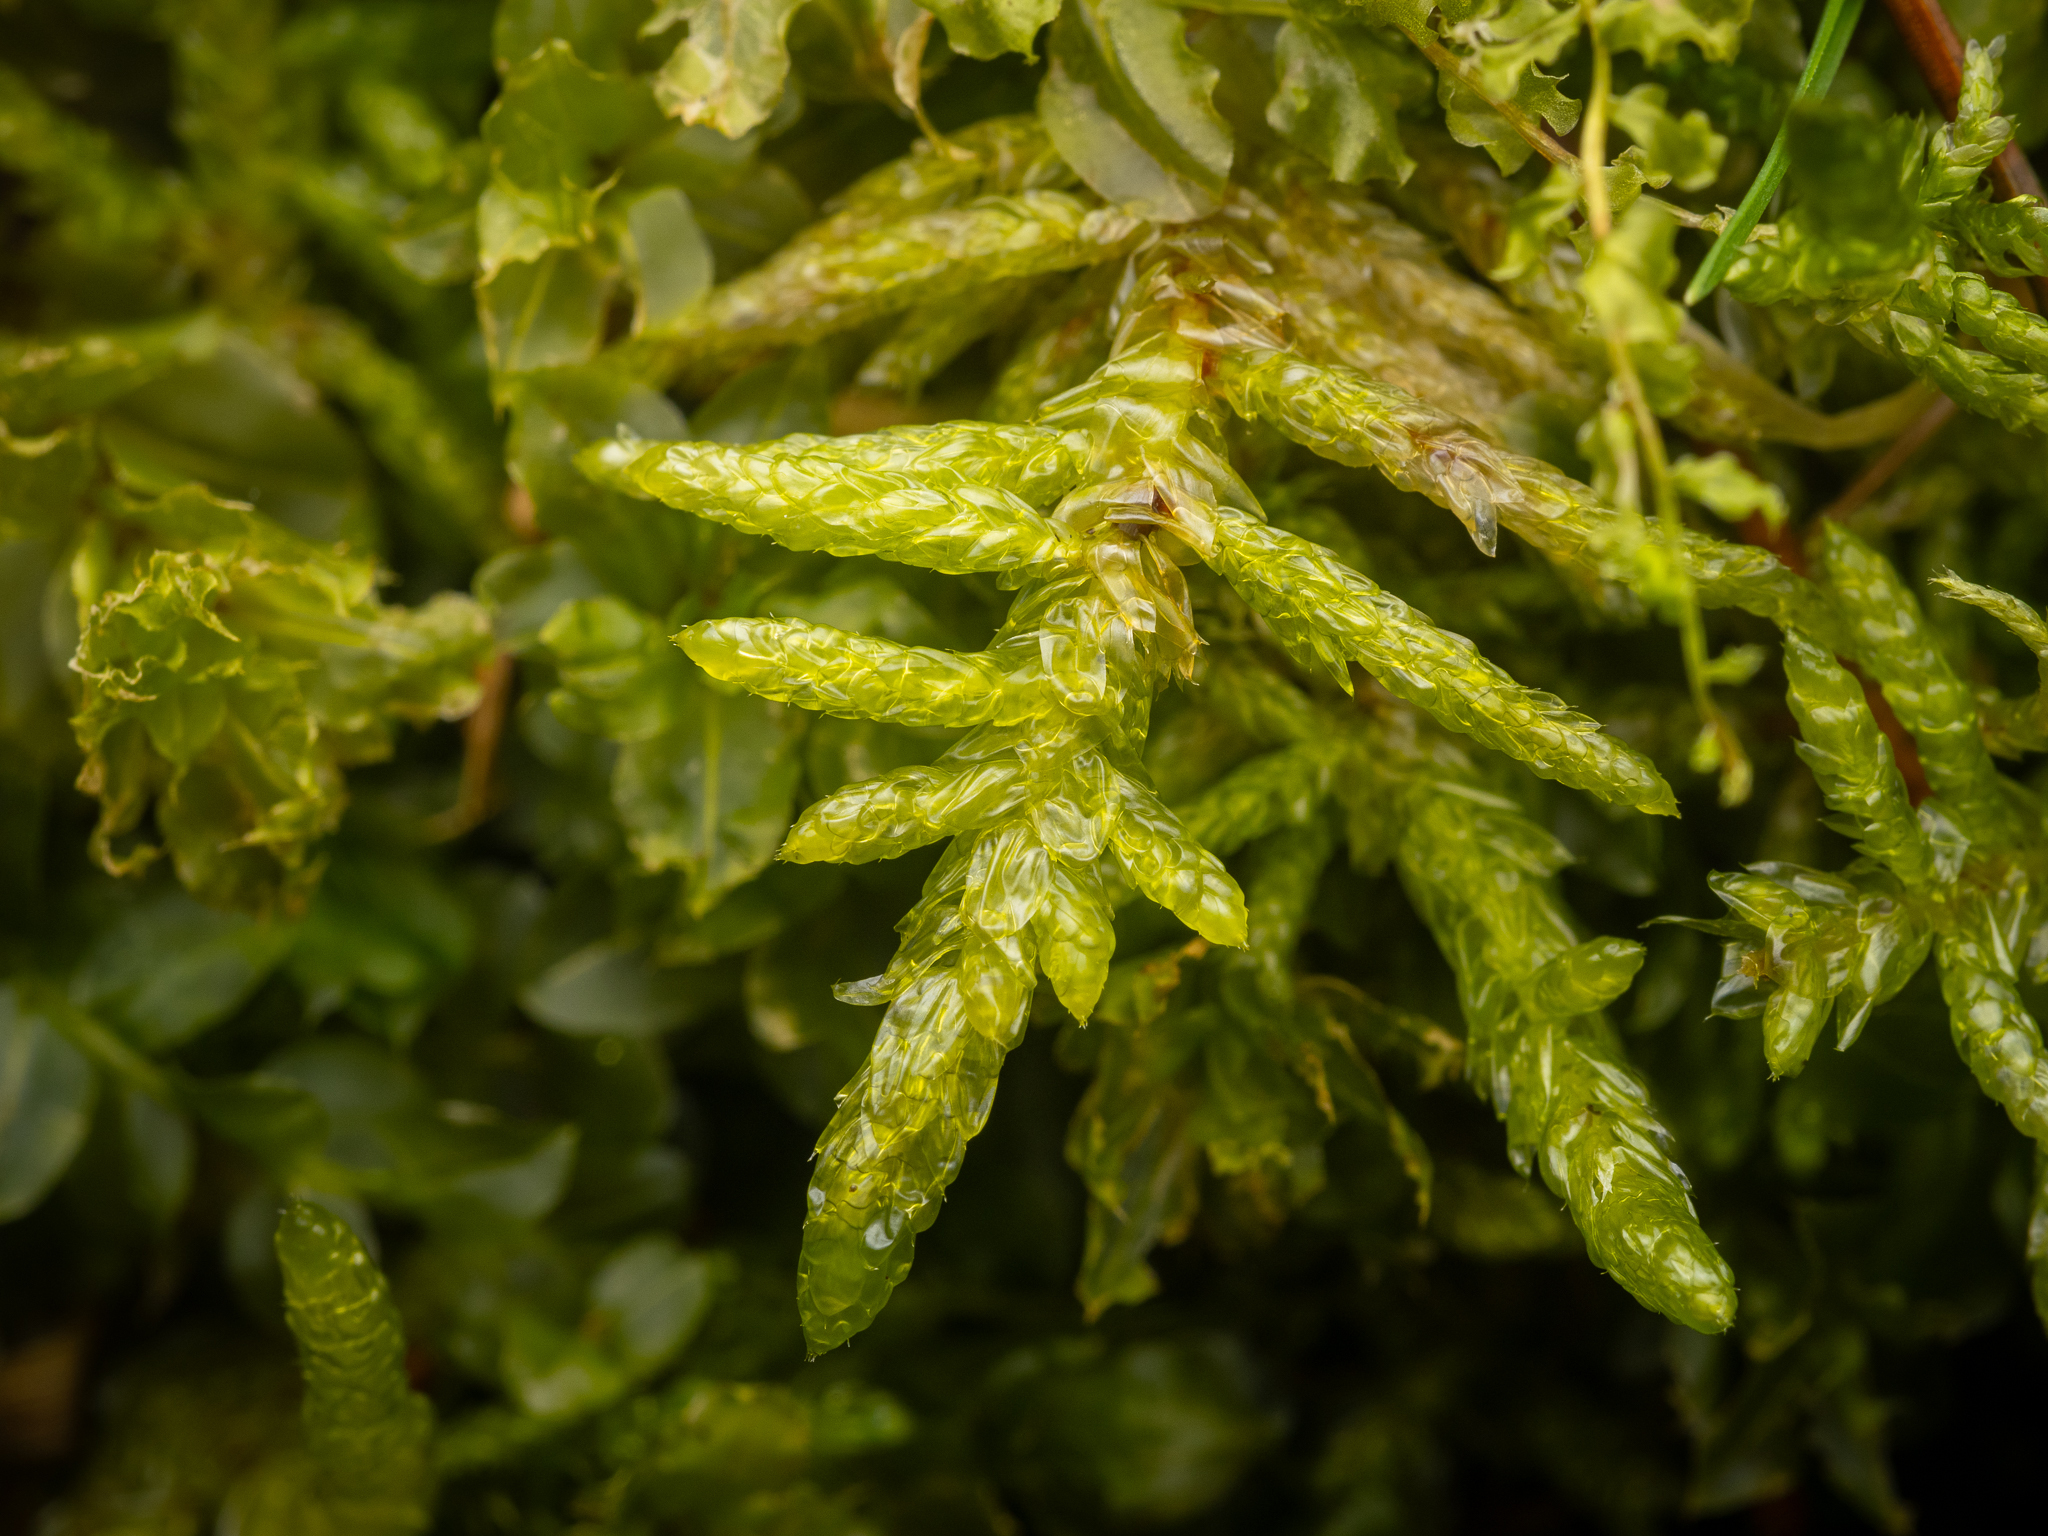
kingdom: Plantae
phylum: Bryophyta
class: Bryopsida
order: Hypnales
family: Brachytheciaceae
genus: Pseudoscleropodium
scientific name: Pseudoscleropodium purum
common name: Neat feather-moss
